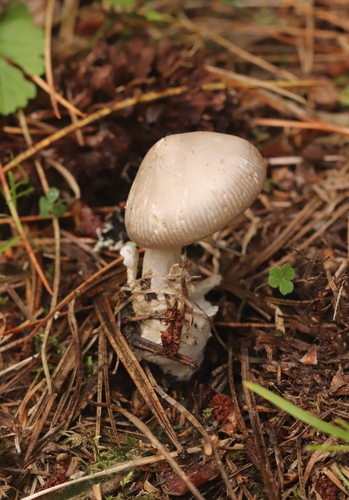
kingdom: Fungi
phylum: Basidiomycota
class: Agaricomycetes
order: Agaricales
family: Amanitaceae
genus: Amanita
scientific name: Amanita vaginata
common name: Grisette
